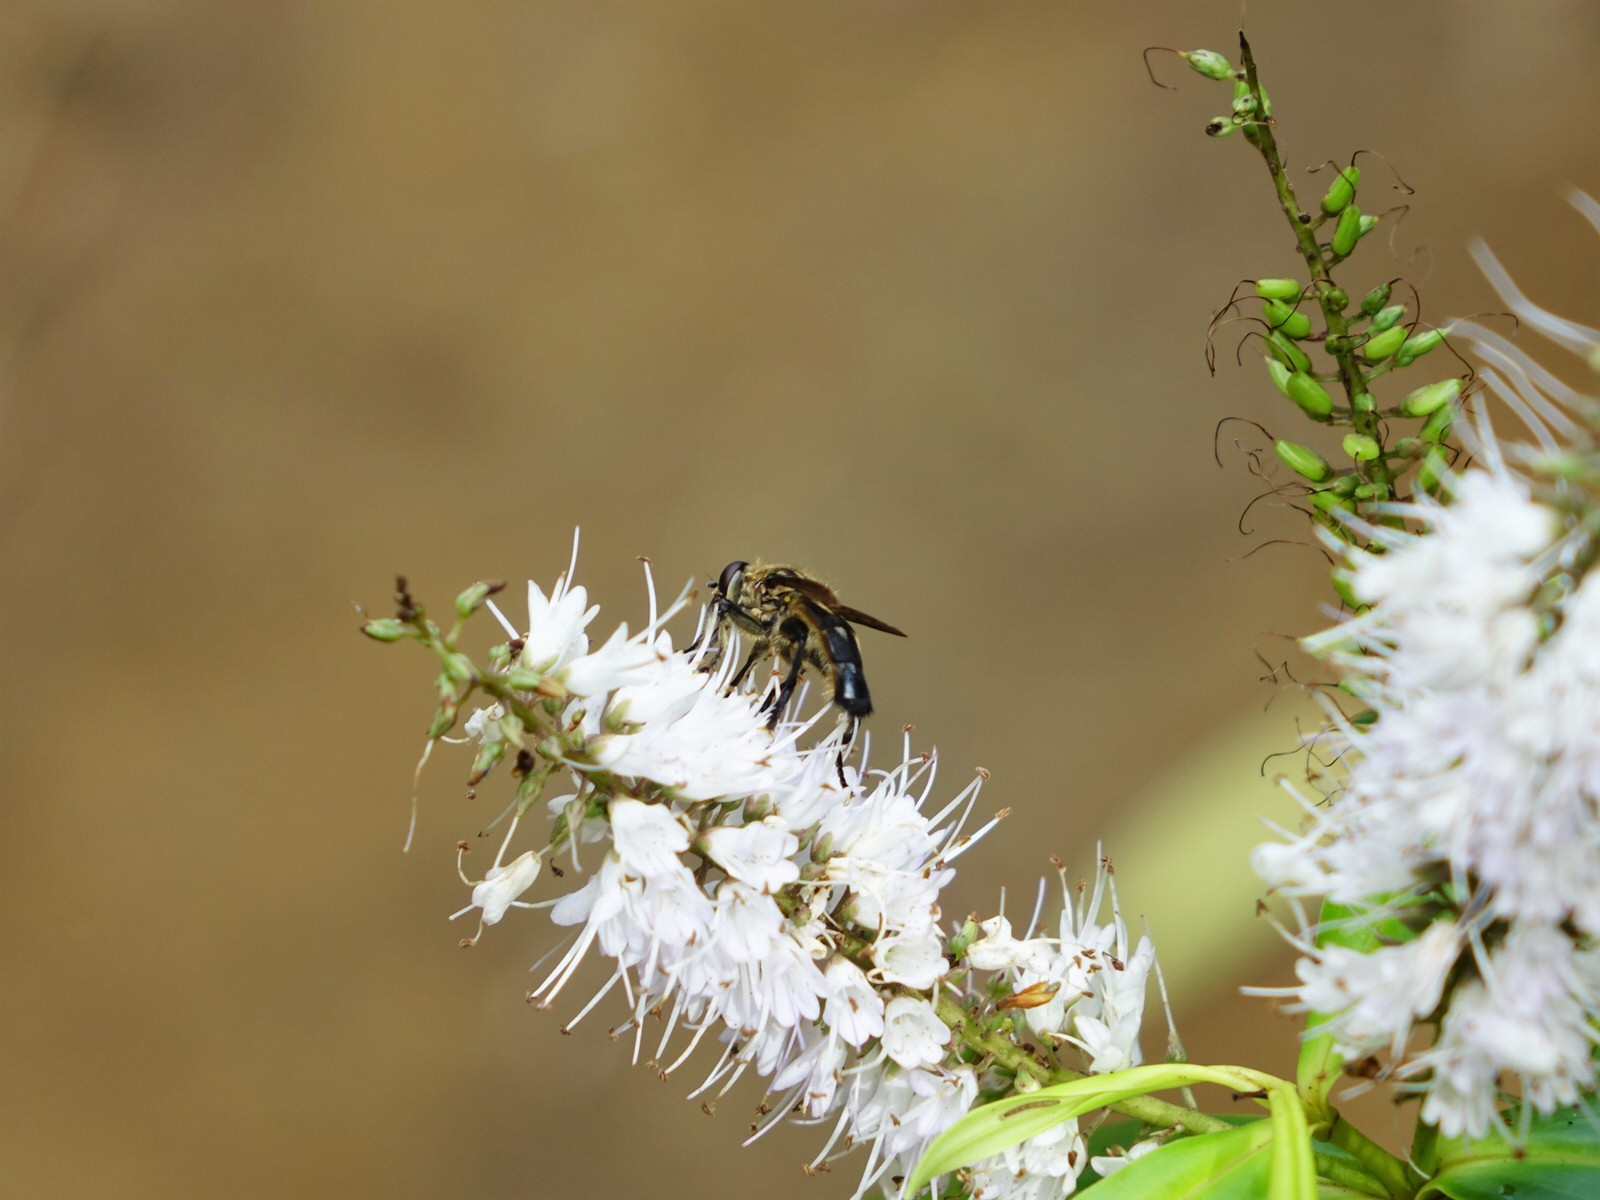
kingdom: Animalia
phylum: Arthropoda
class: Insecta
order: Diptera
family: Syrphidae
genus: Orthoprosopa
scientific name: Orthoprosopa bilineata
